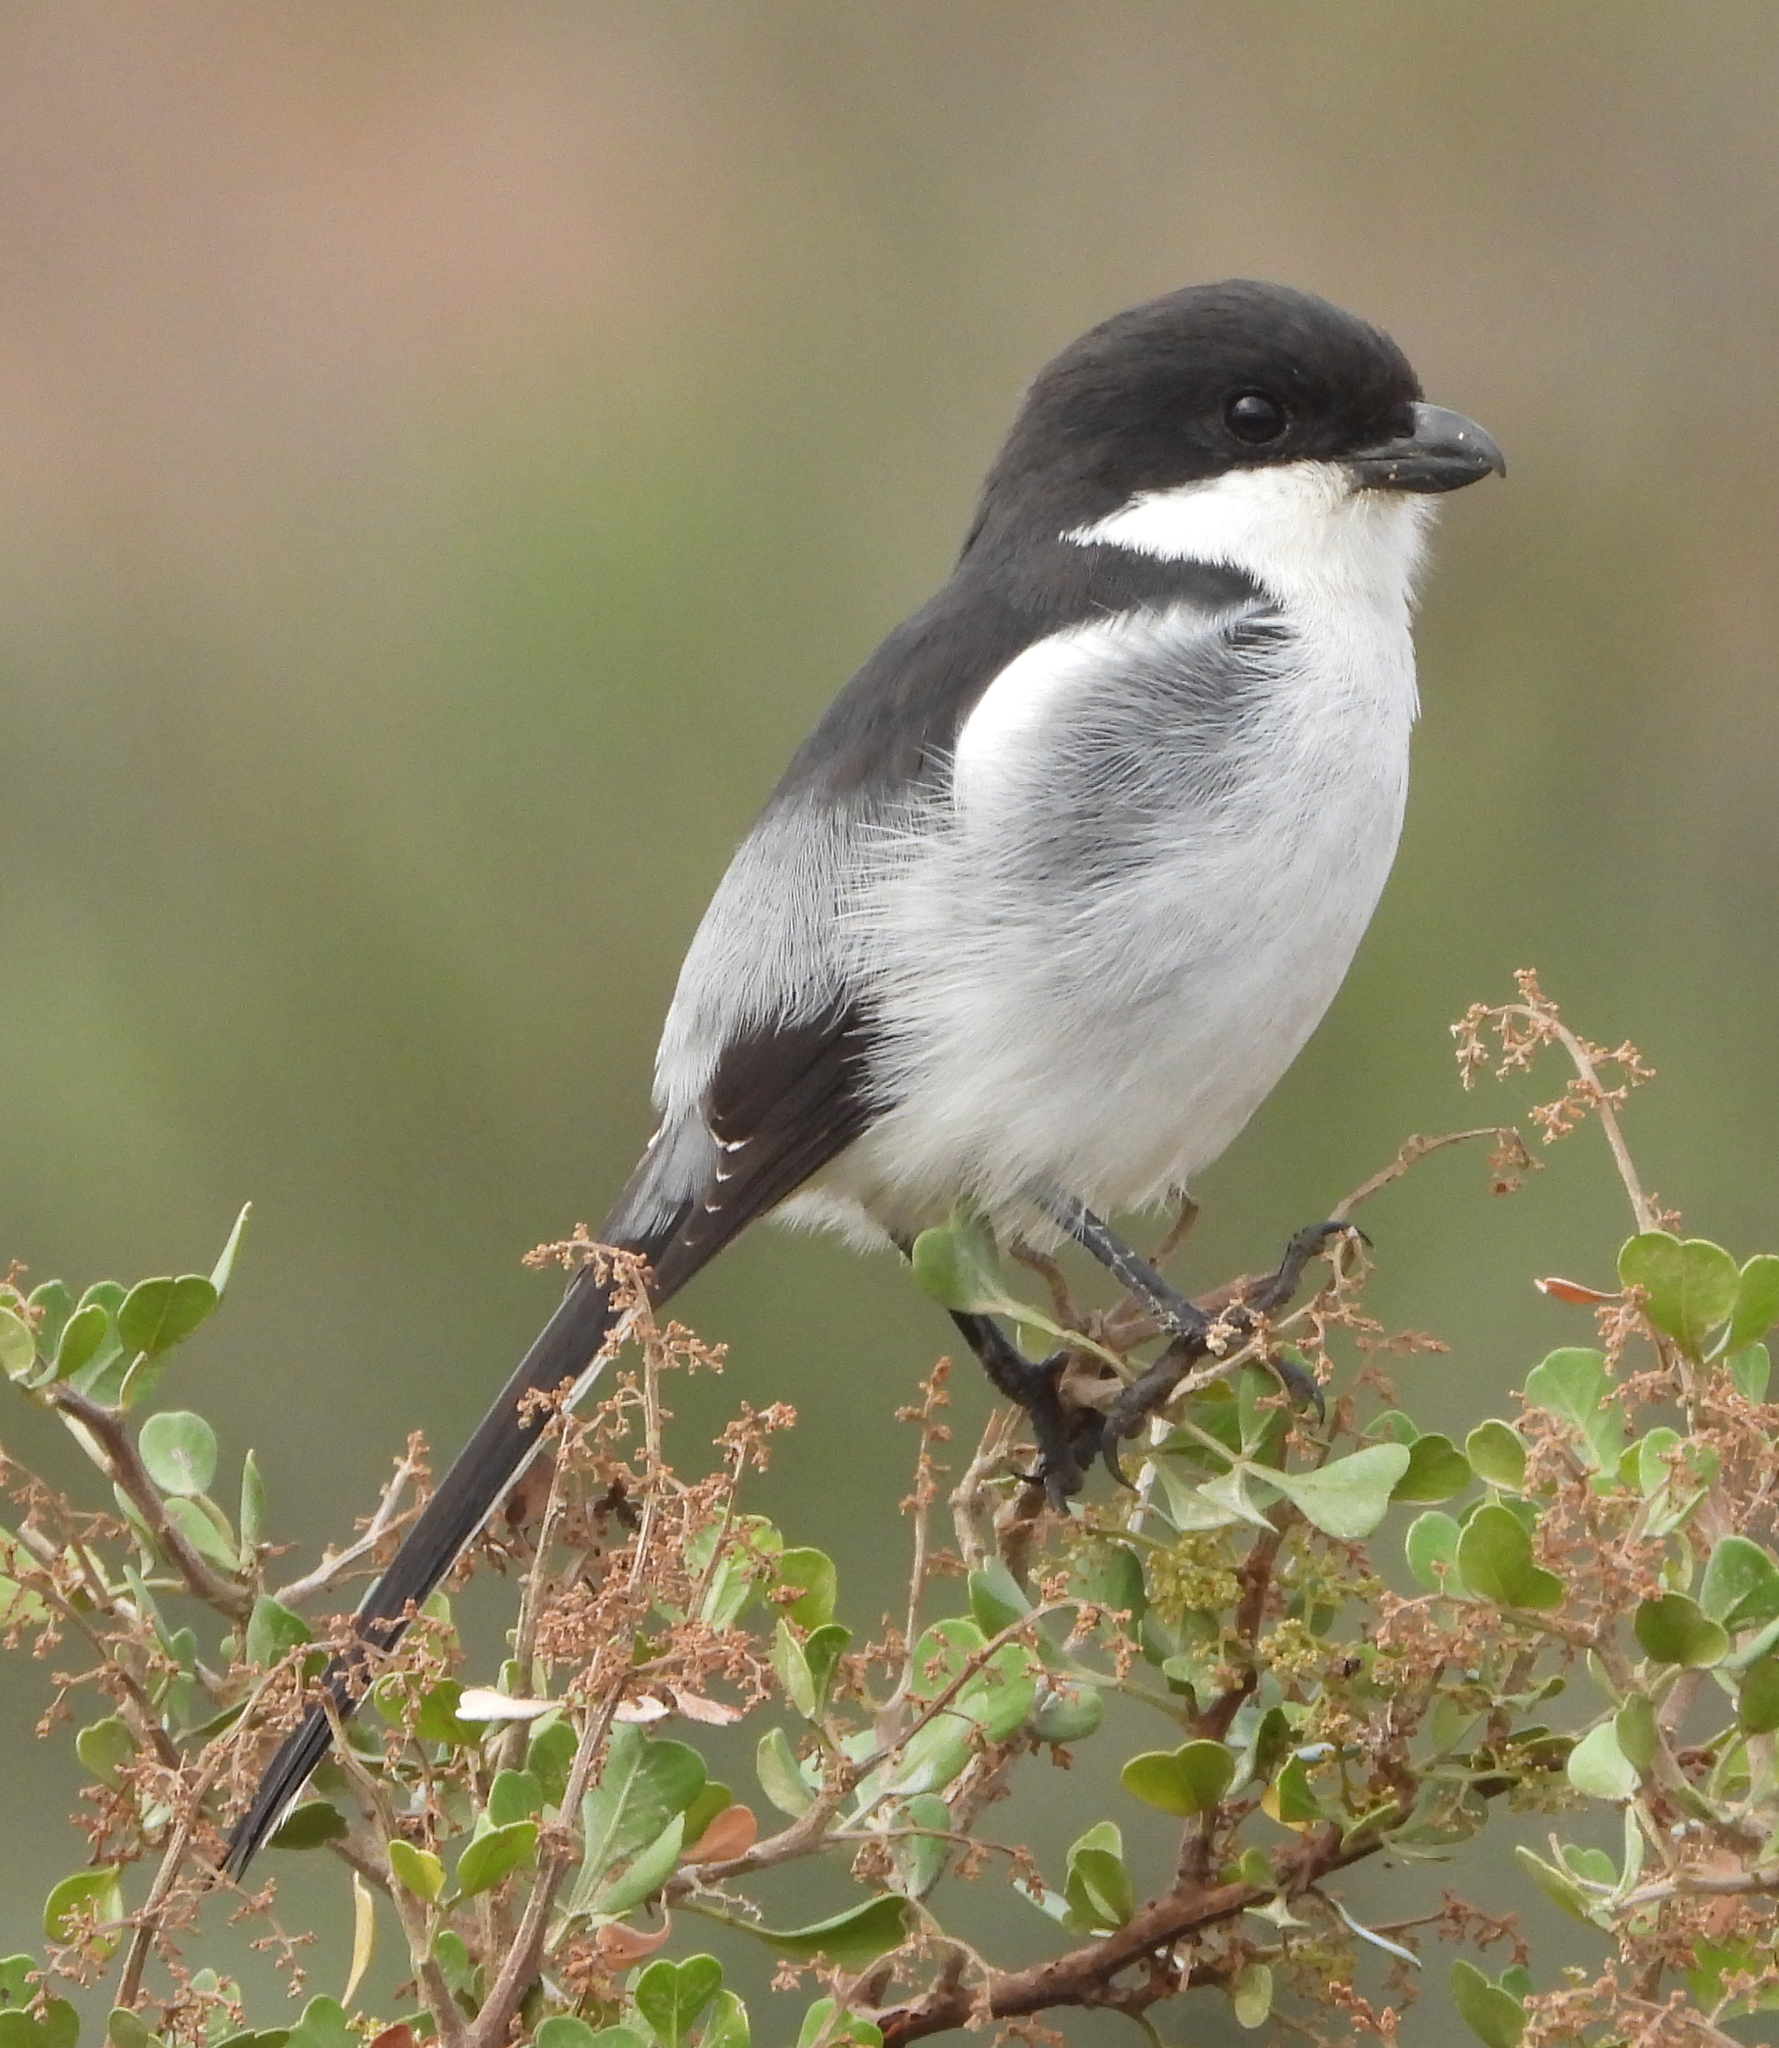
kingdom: Animalia
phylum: Chordata
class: Aves
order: Passeriformes
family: Laniidae
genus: Lanius
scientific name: Lanius collaris
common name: Southern fiscal
